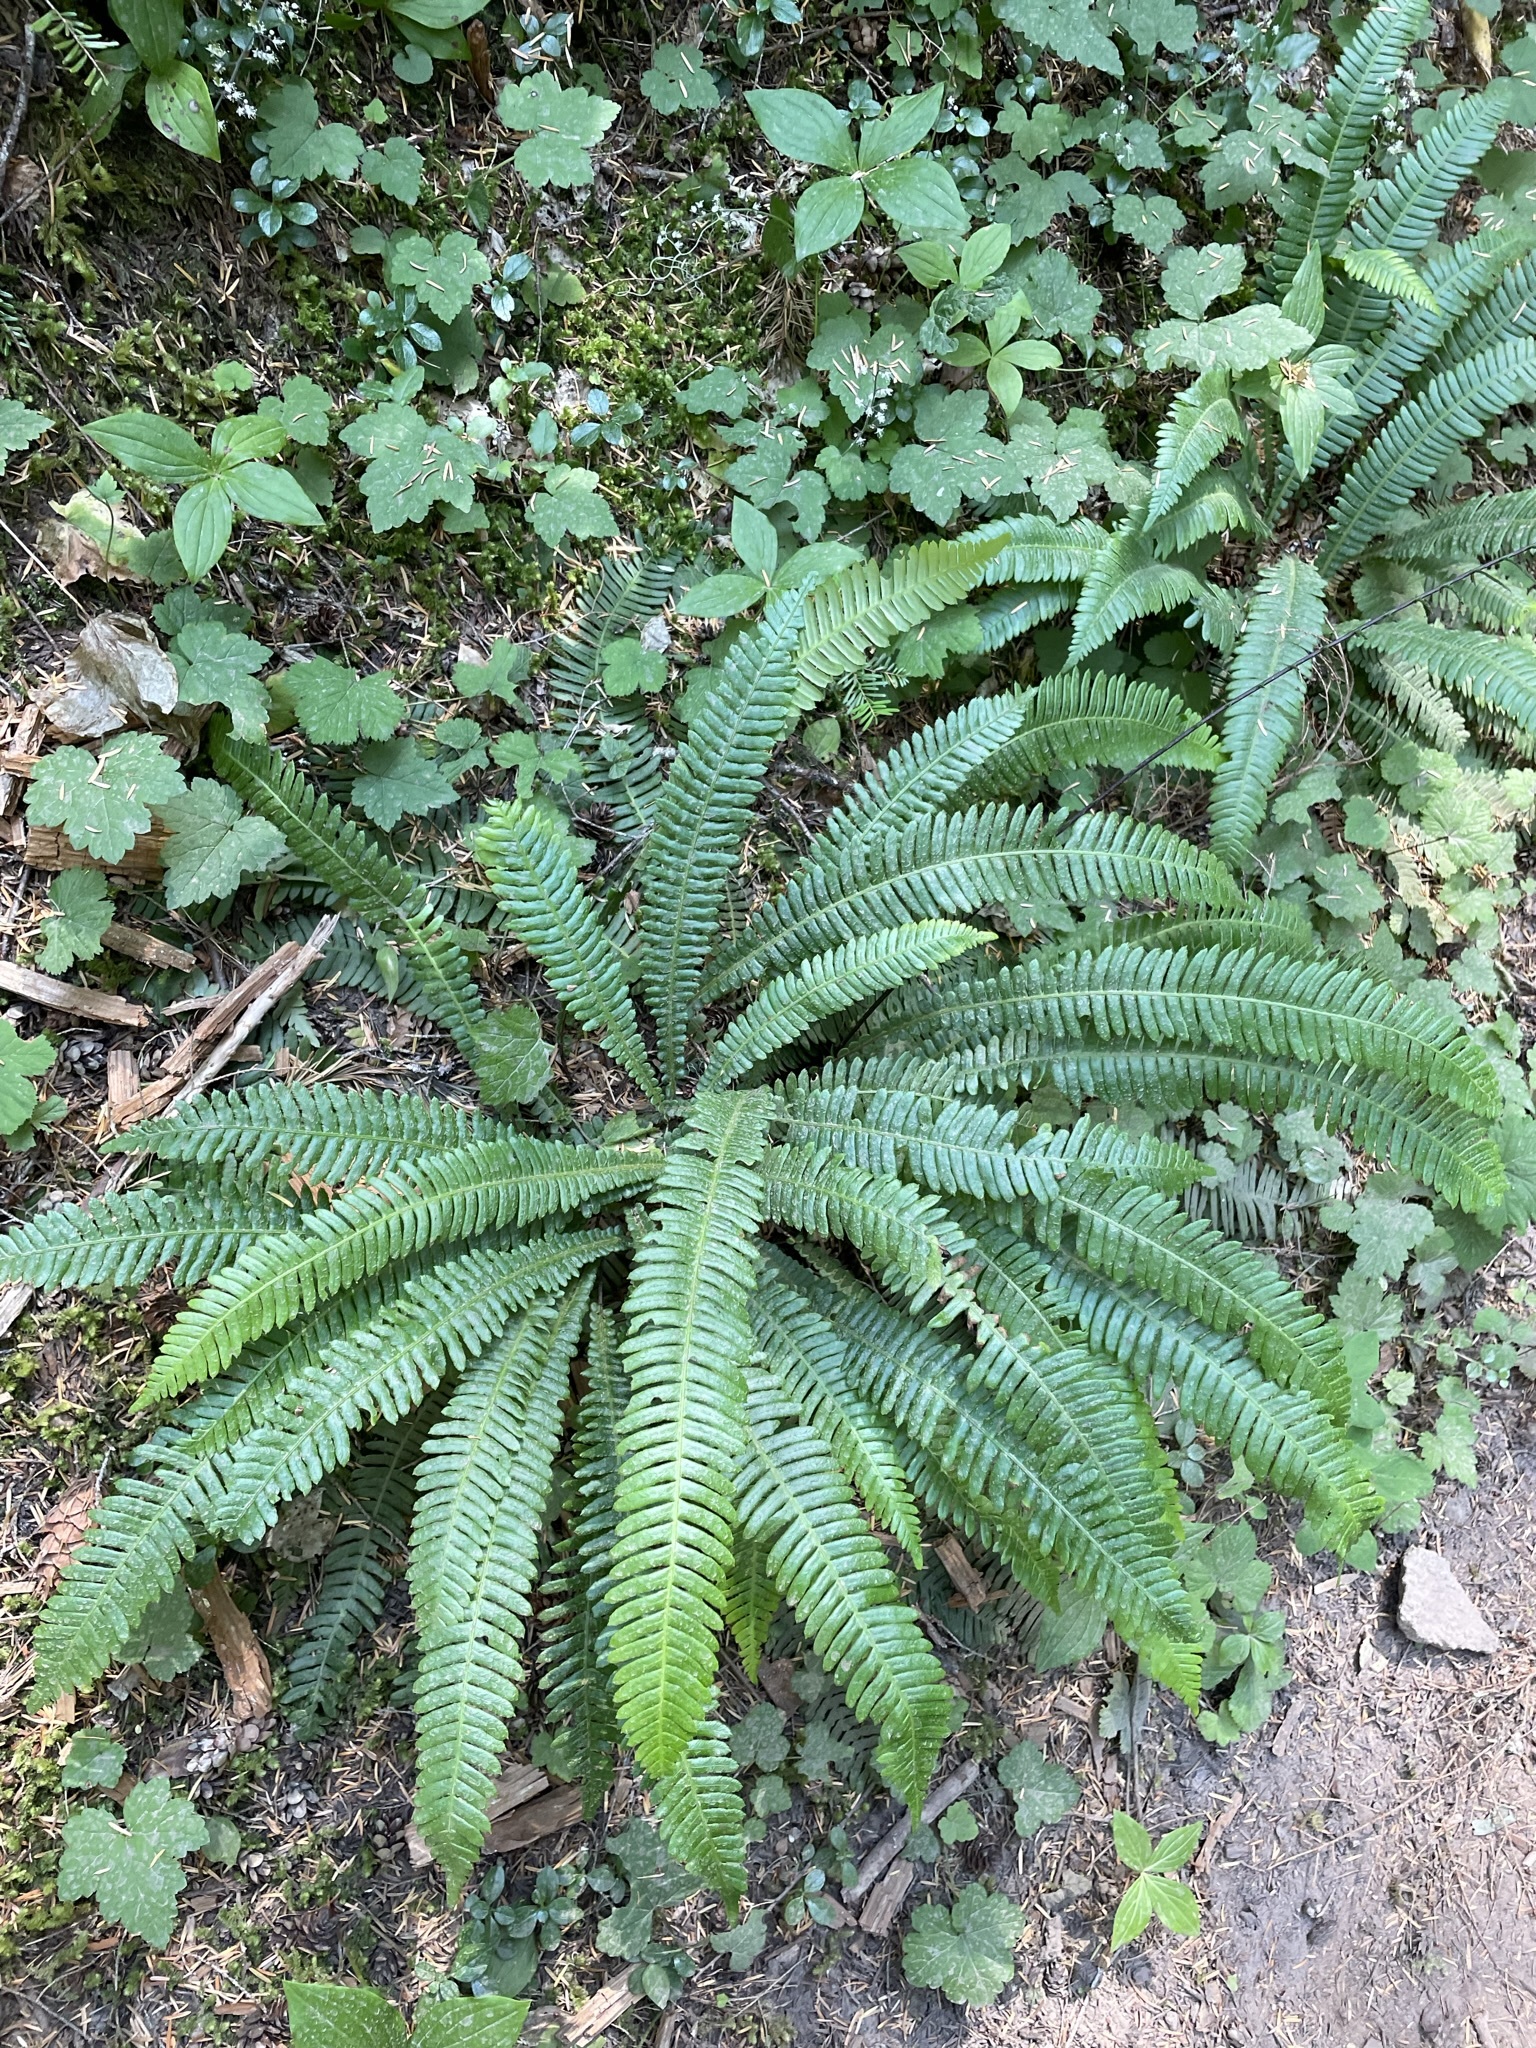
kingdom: Plantae
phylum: Tracheophyta
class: Polypodiopsida
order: Polypodiales
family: Blechnaceae
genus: Struthiopteris
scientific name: Struthiopteris spicant
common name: Deer fern
